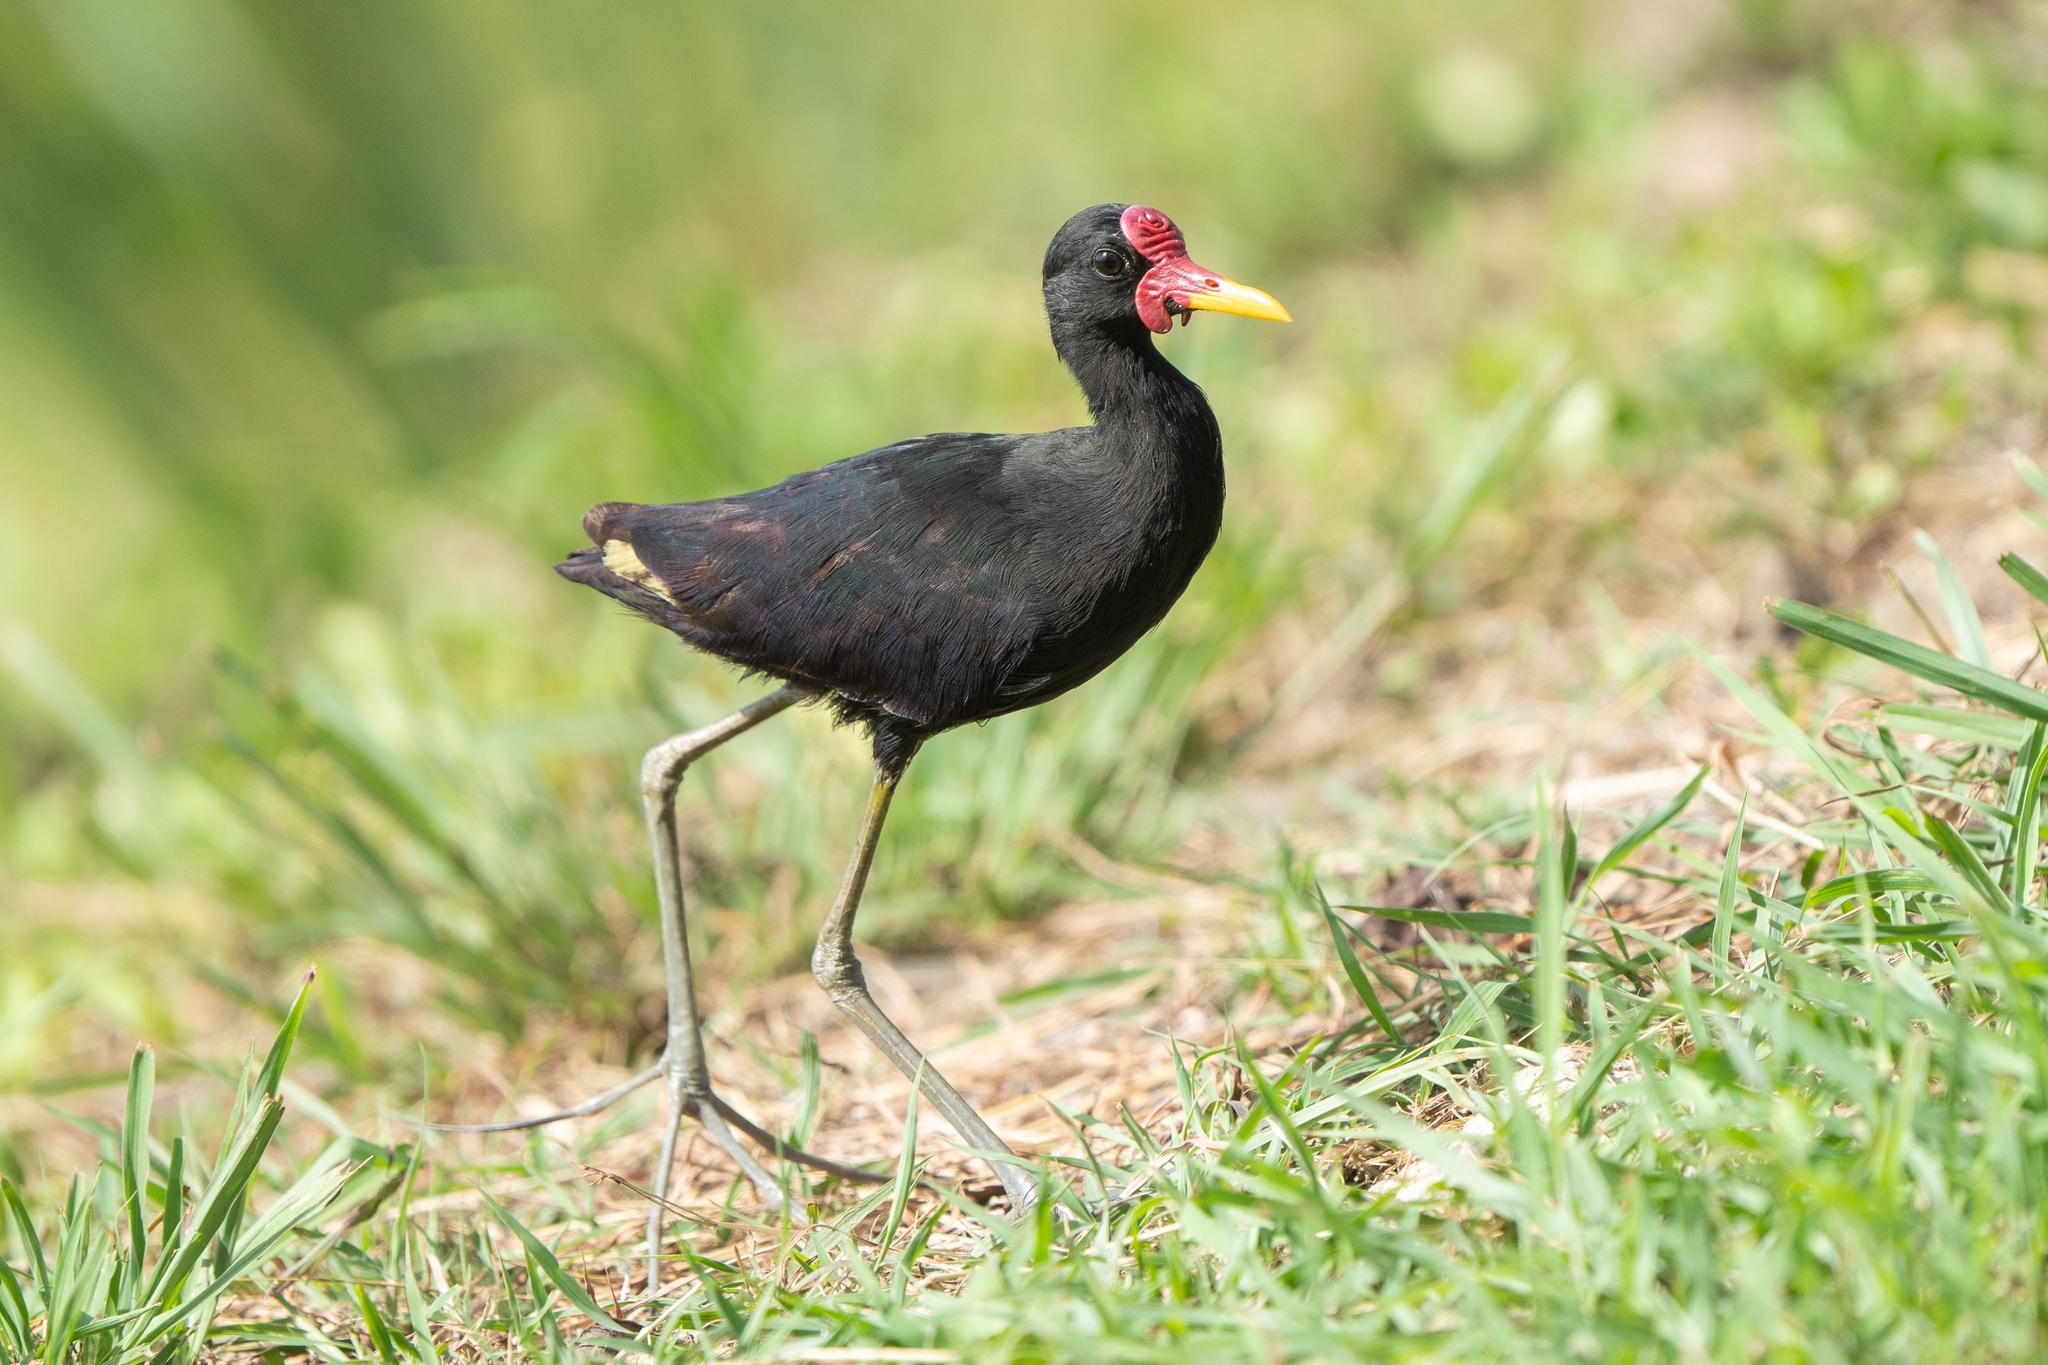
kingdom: Animalia
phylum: Chordata
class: Aves
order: Charadriiformes
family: Jacanidae
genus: Jacana
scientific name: Jacana jacana
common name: Wattled jacana
